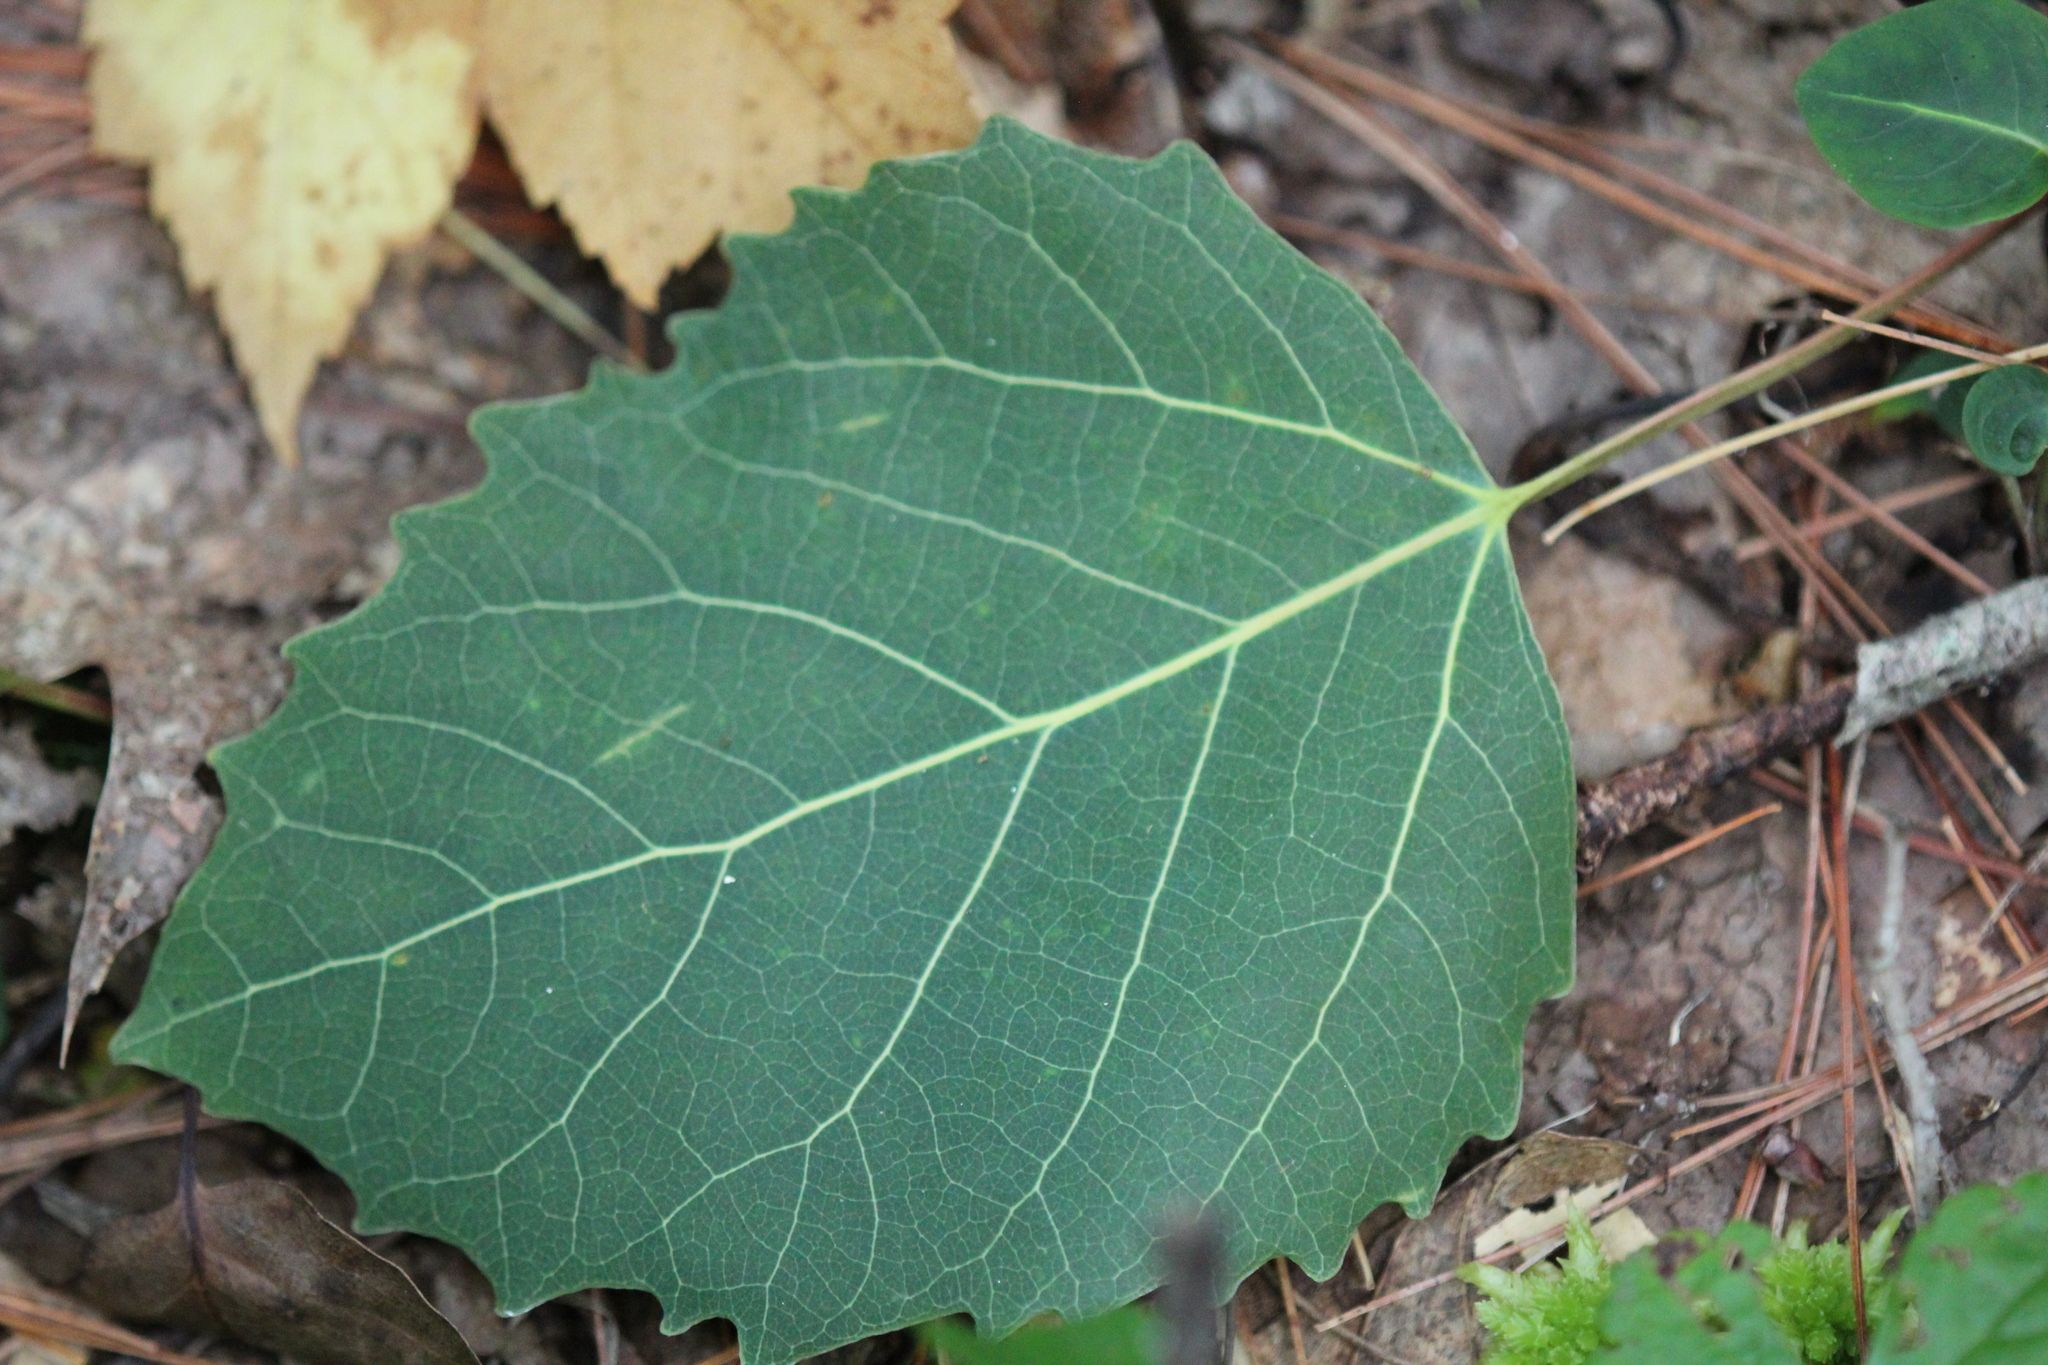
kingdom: Plantae
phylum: Tracheophyta
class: Magnoliopsida
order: Malpighiales
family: Salicaceae
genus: Populus
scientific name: Populus grandidentata
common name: Bigtooth aspen
